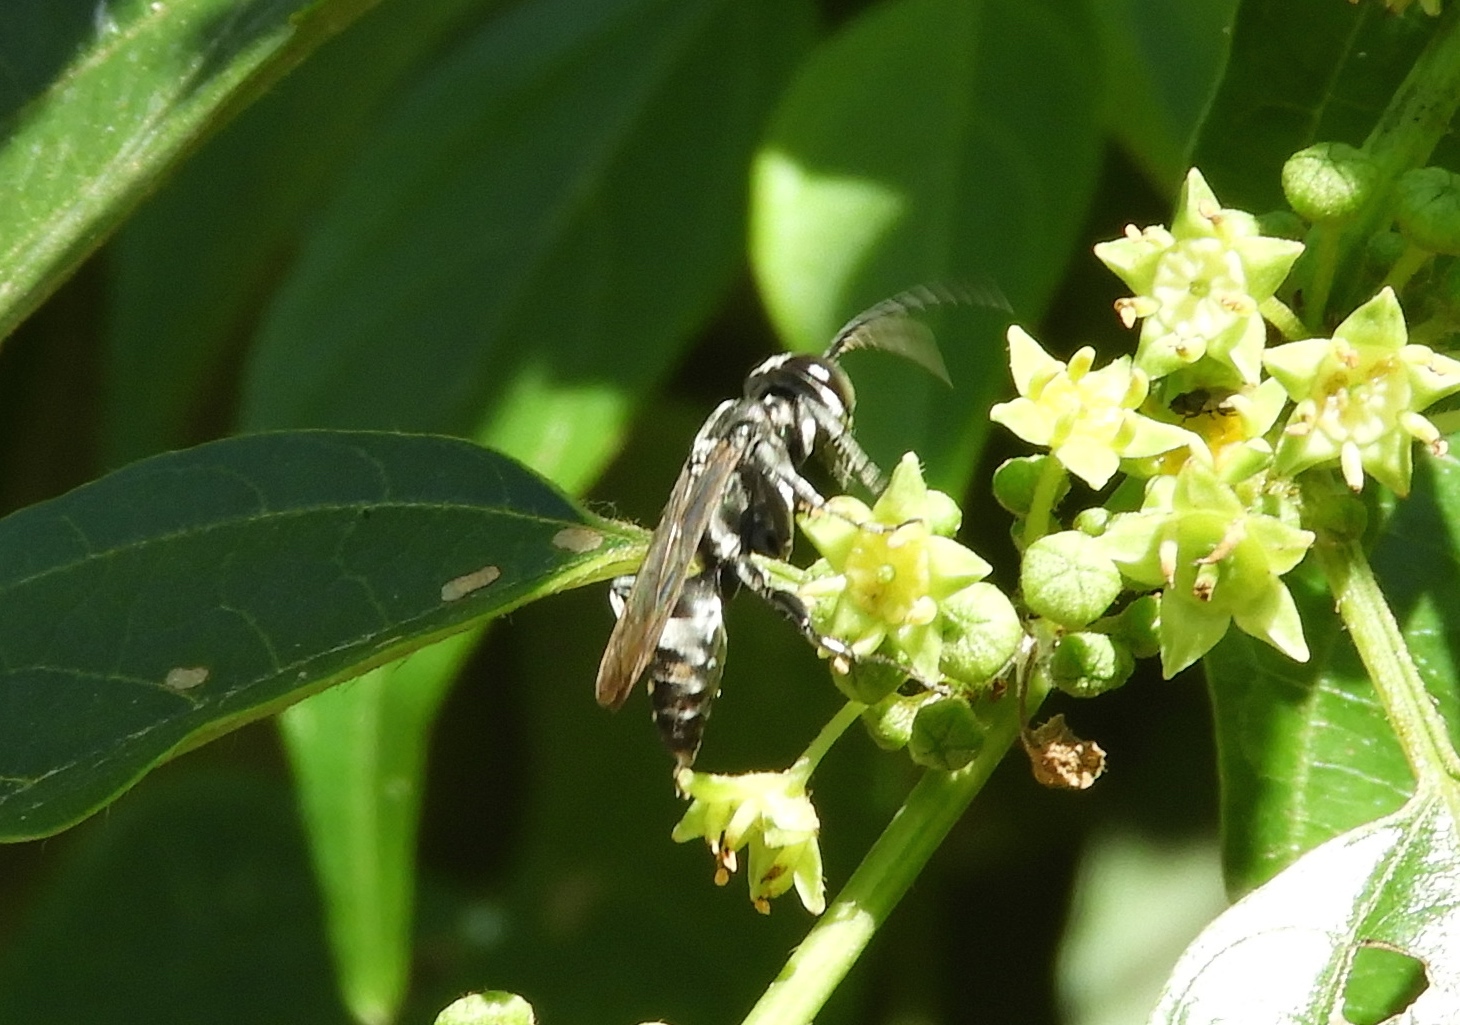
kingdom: Animalia
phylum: Arthropoda
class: Insecta
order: Hymenoptera
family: Crabronidae
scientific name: Crabronidae
